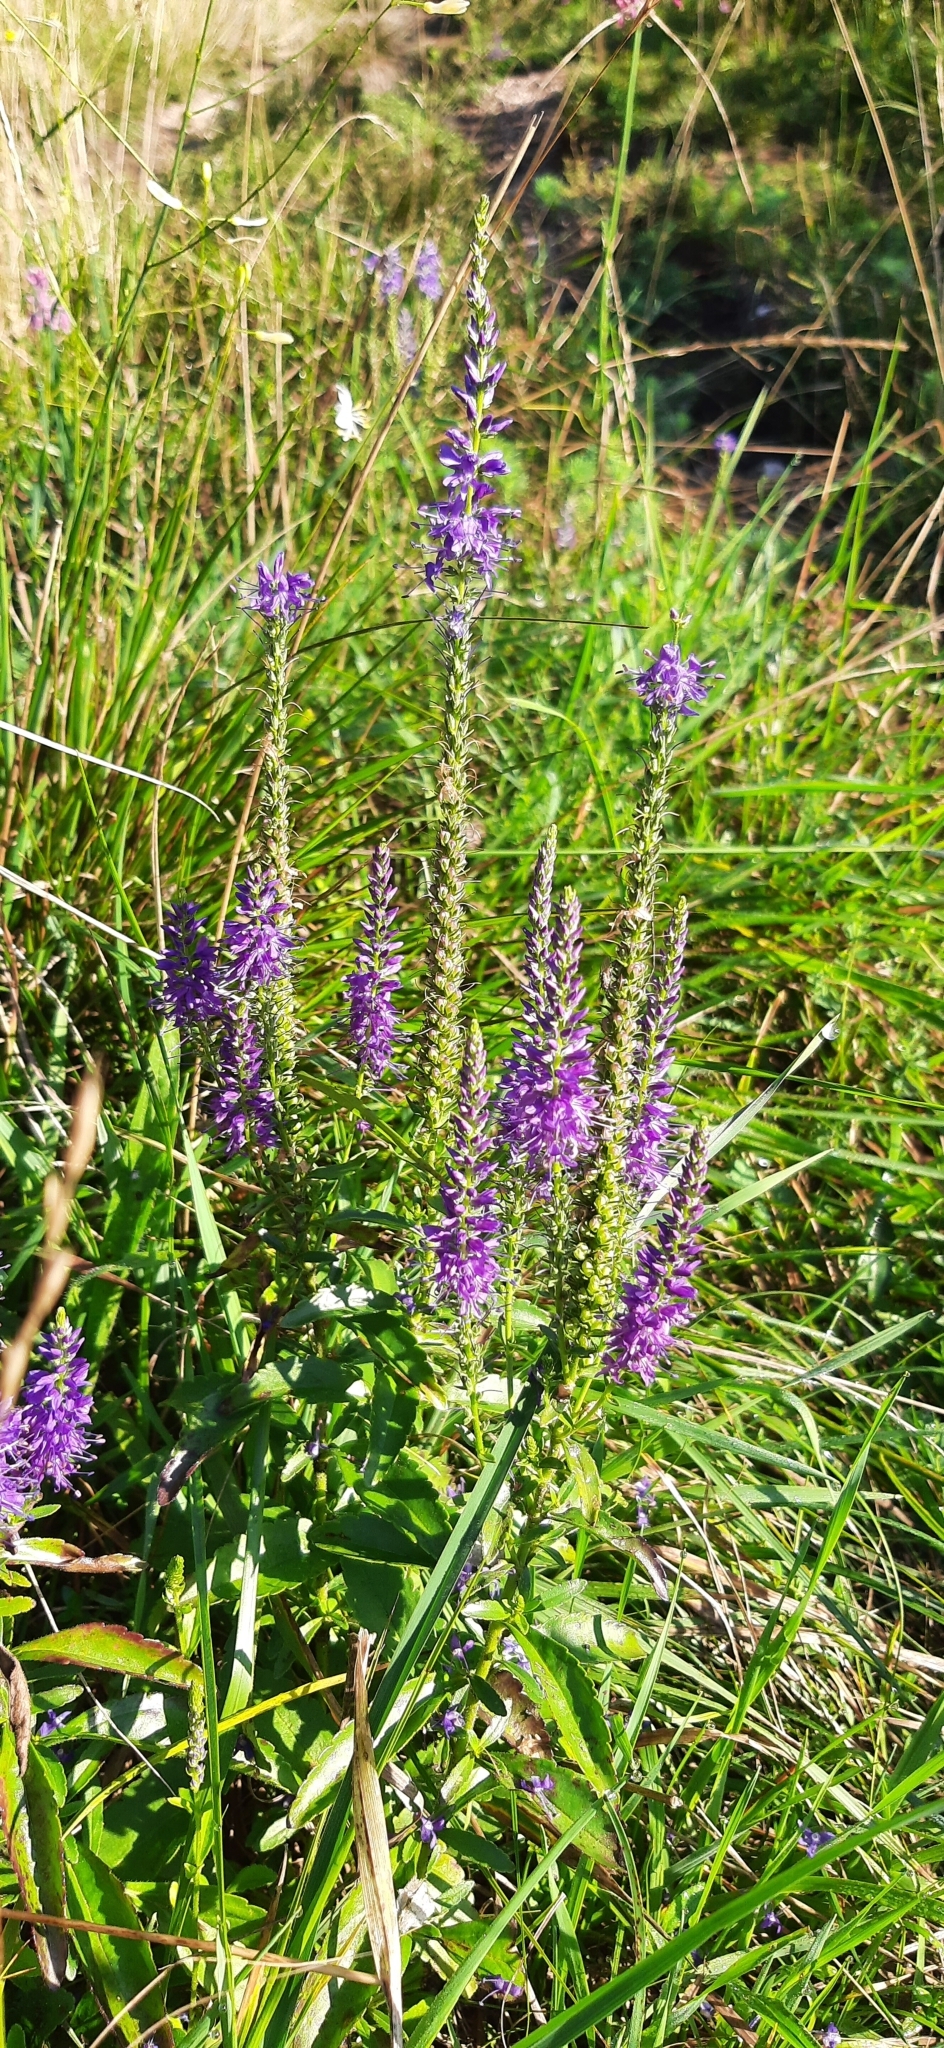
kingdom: Plantae
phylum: Tracheophyta
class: Magnoliopsida
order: Lamiales
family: Plantaginaceae
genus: Veronica
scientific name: Veronica barrelieri
